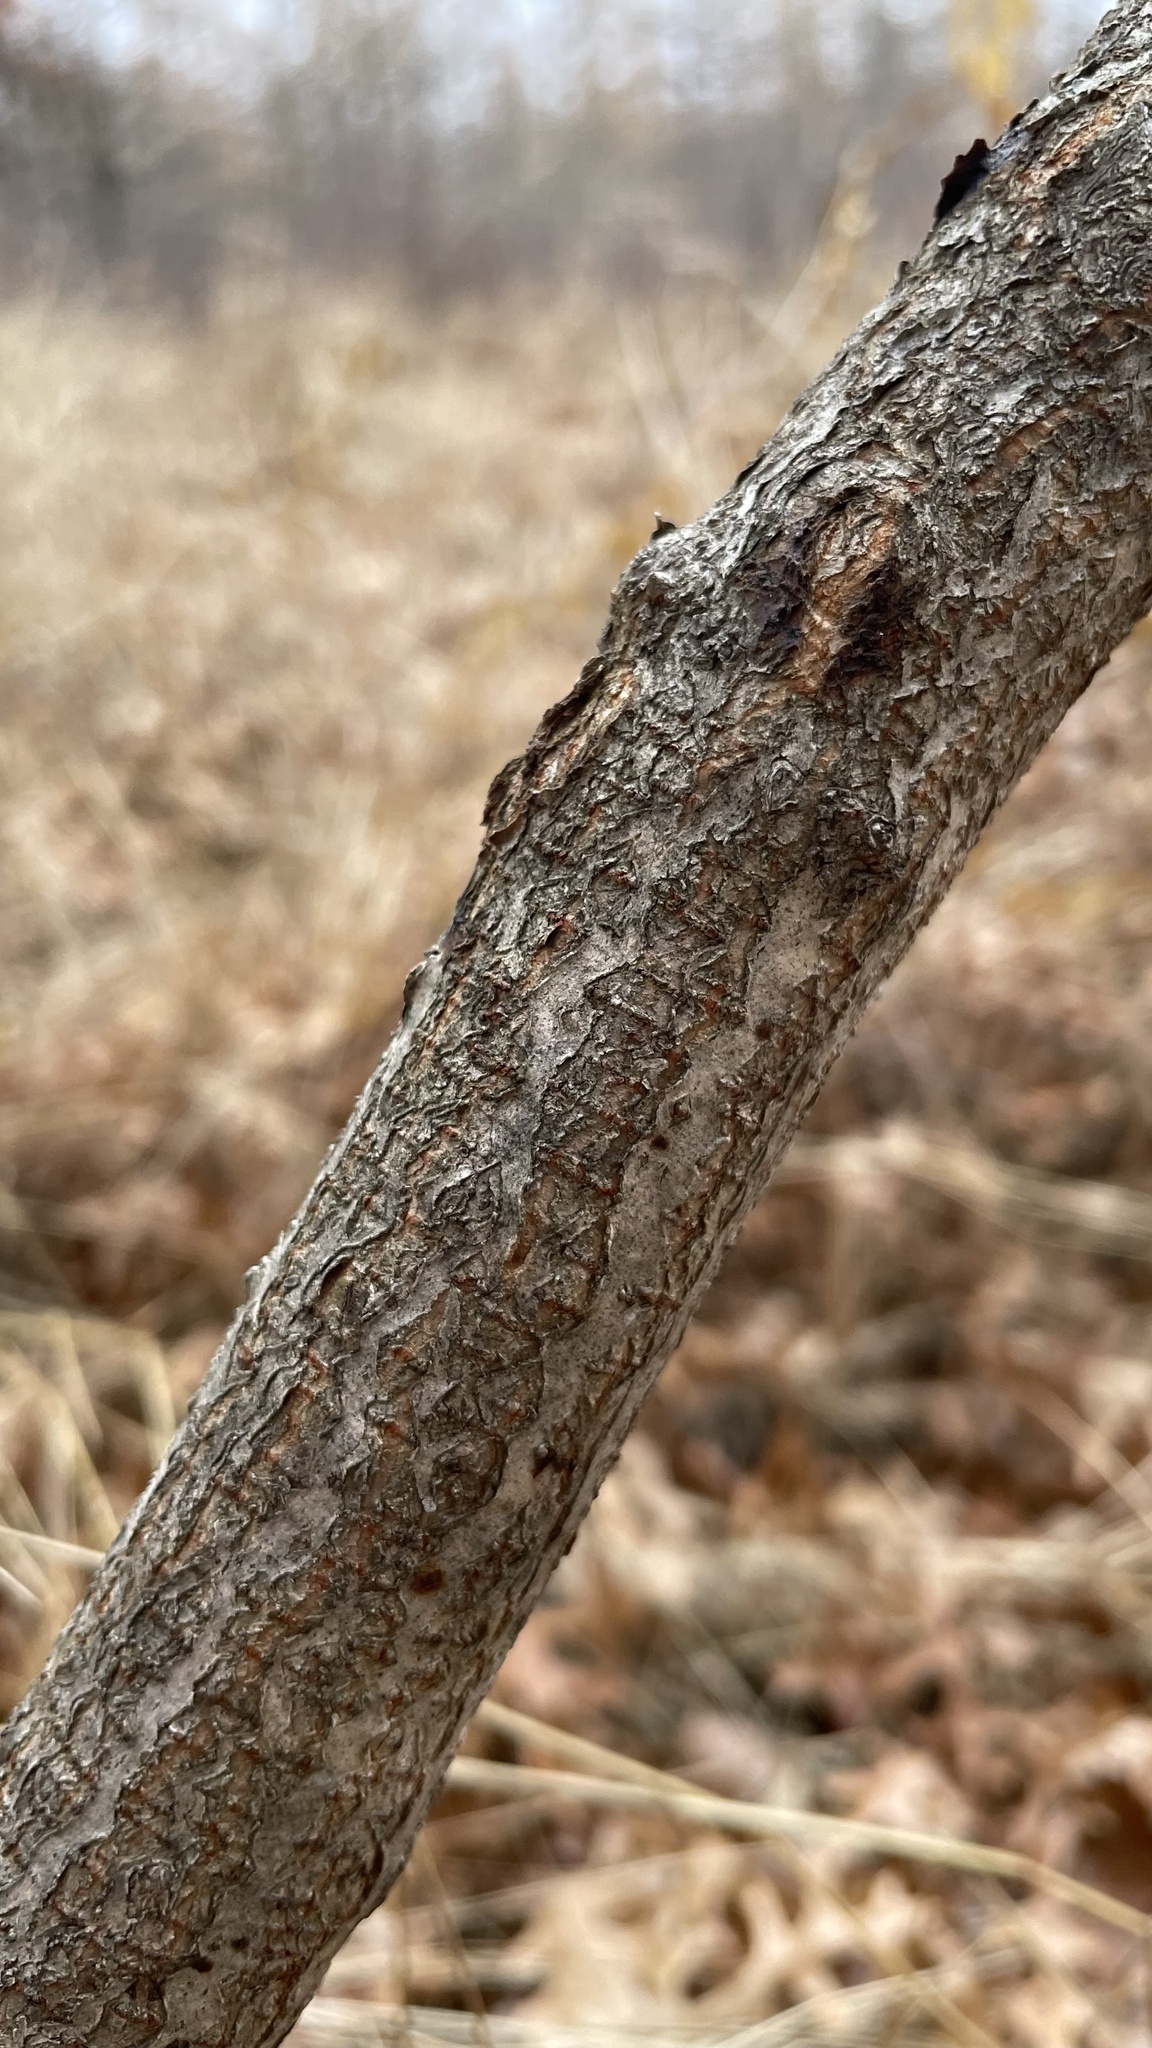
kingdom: Plantae
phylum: Tracheophyta
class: Magnoliopsida
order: Sapindales
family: Anacardiaceae
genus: Toxicodendron
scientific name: Toxicodendron vernix
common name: Poison sumac
